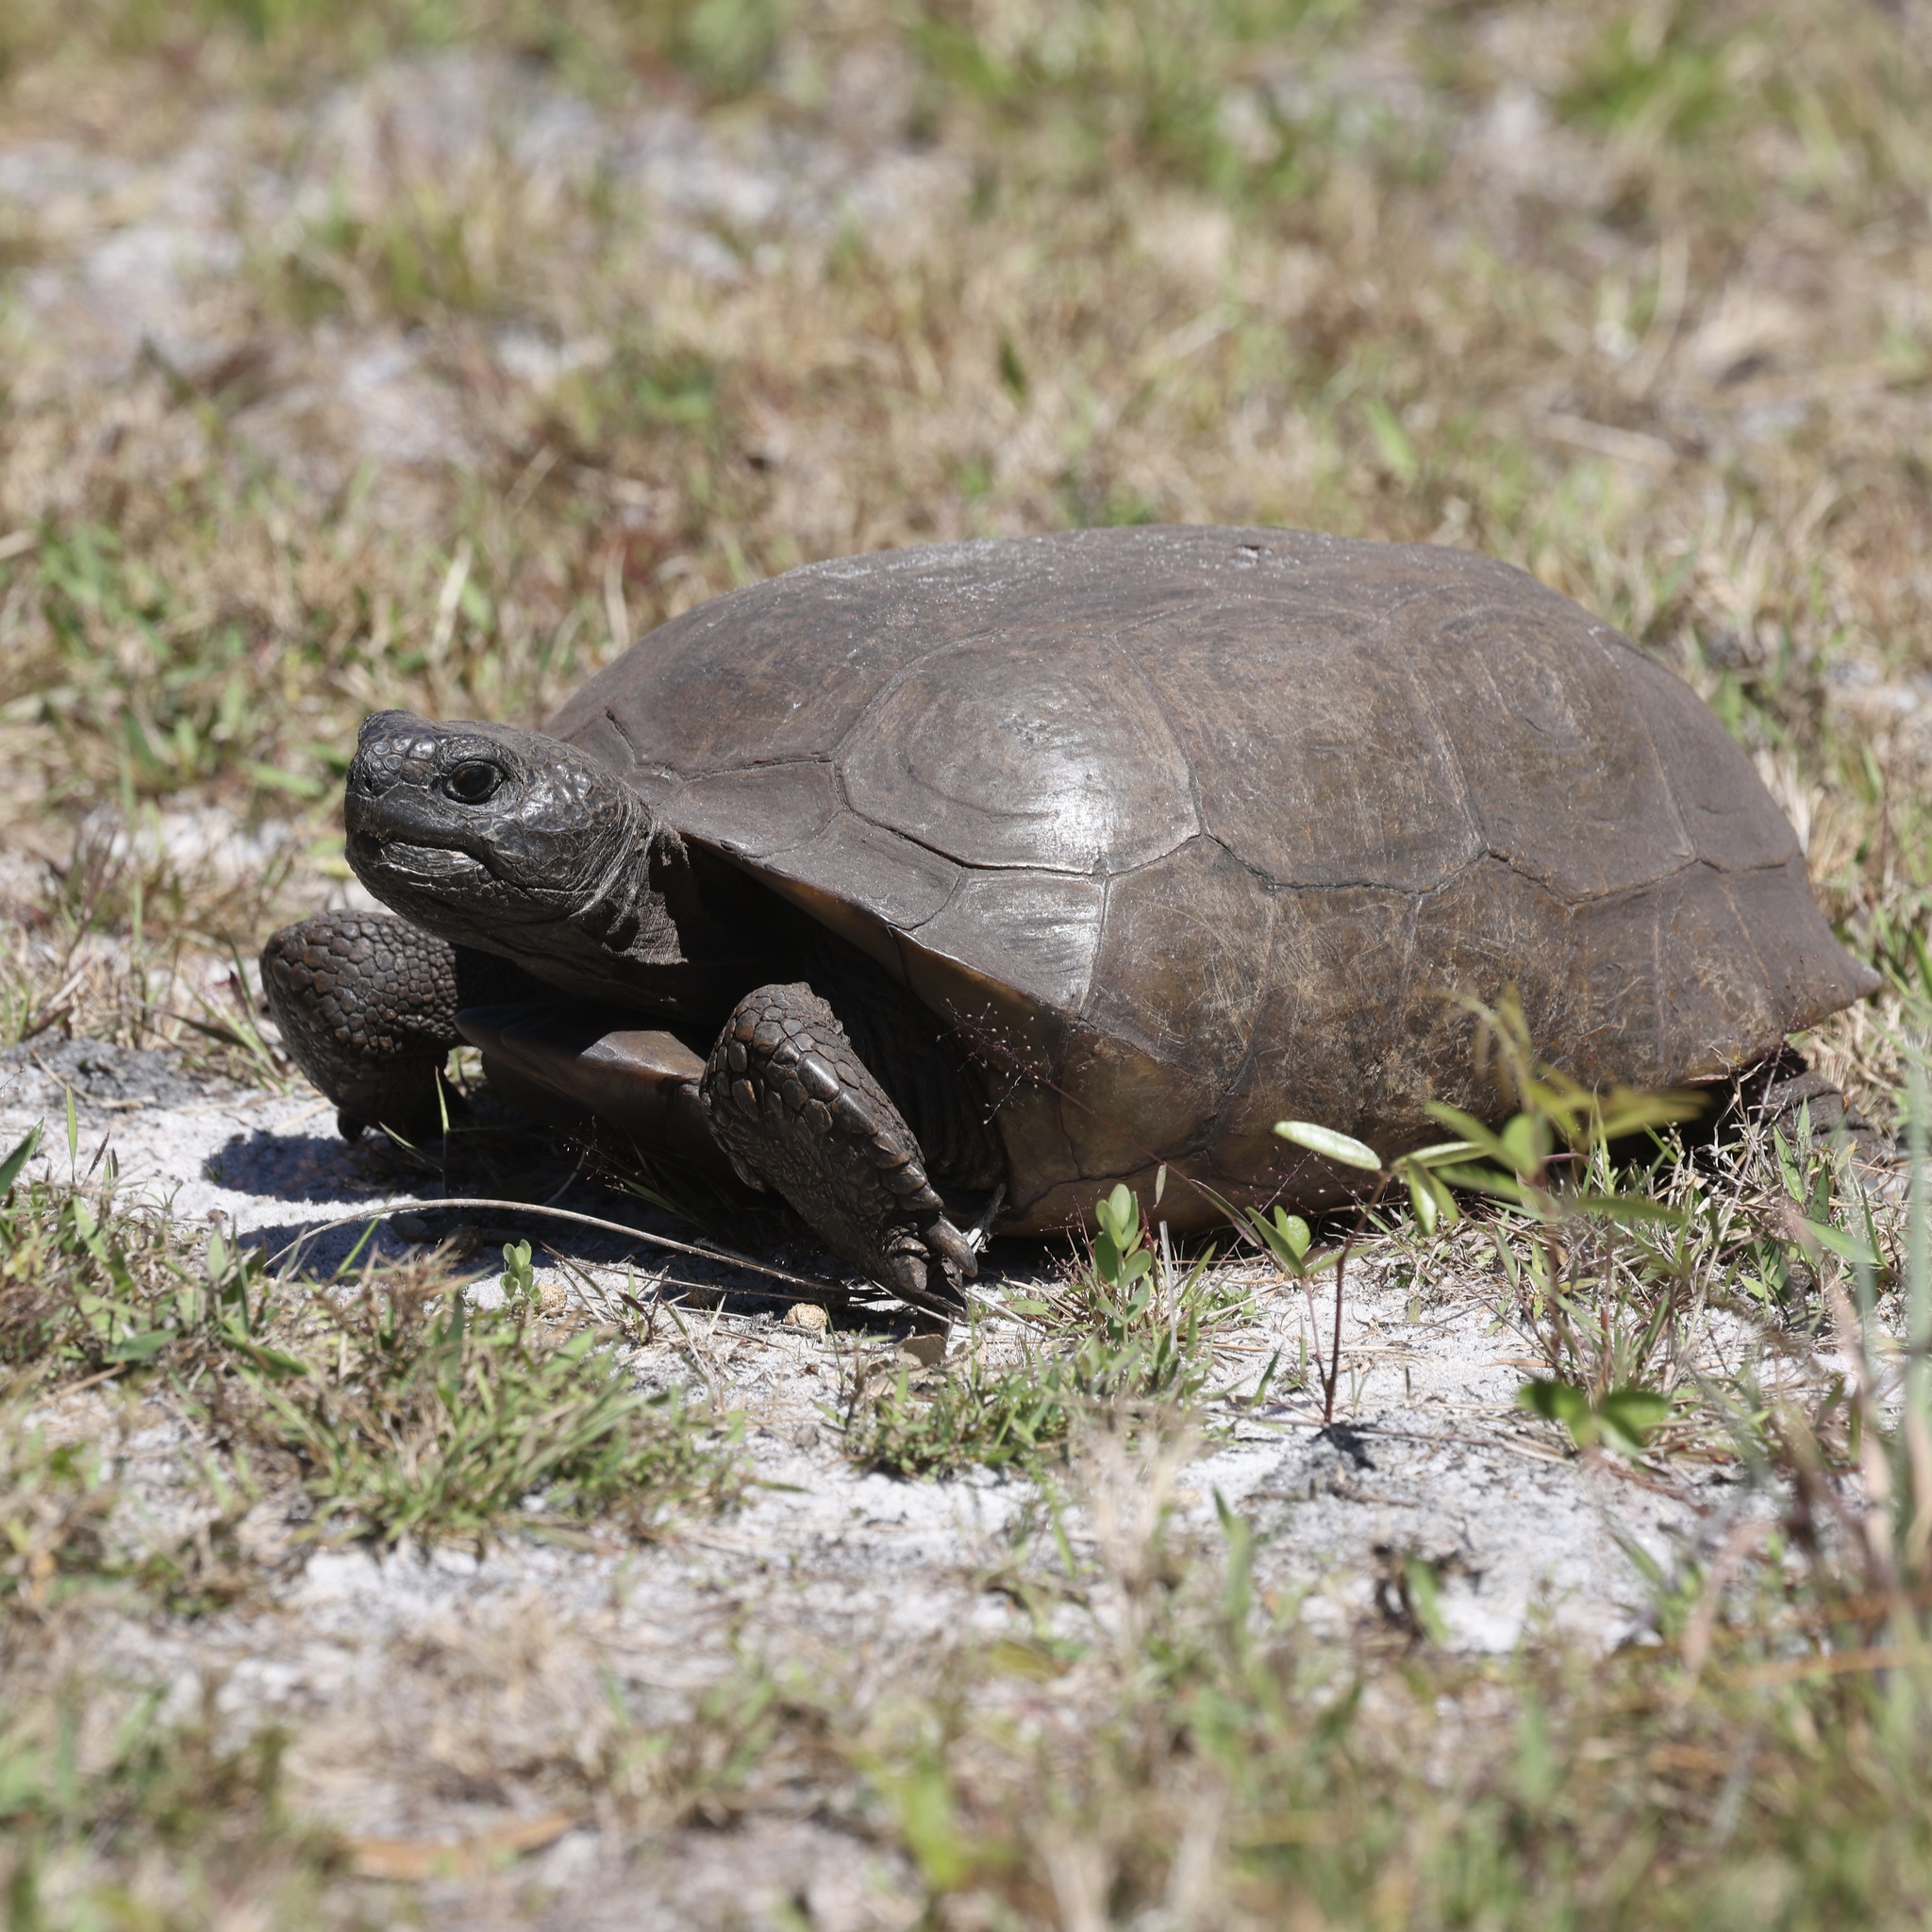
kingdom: Animalia
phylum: Chordata
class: Testudines
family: Testudinidae
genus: Gopherus
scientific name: Gopherus polyphemus
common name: Florida gopher tortoise
